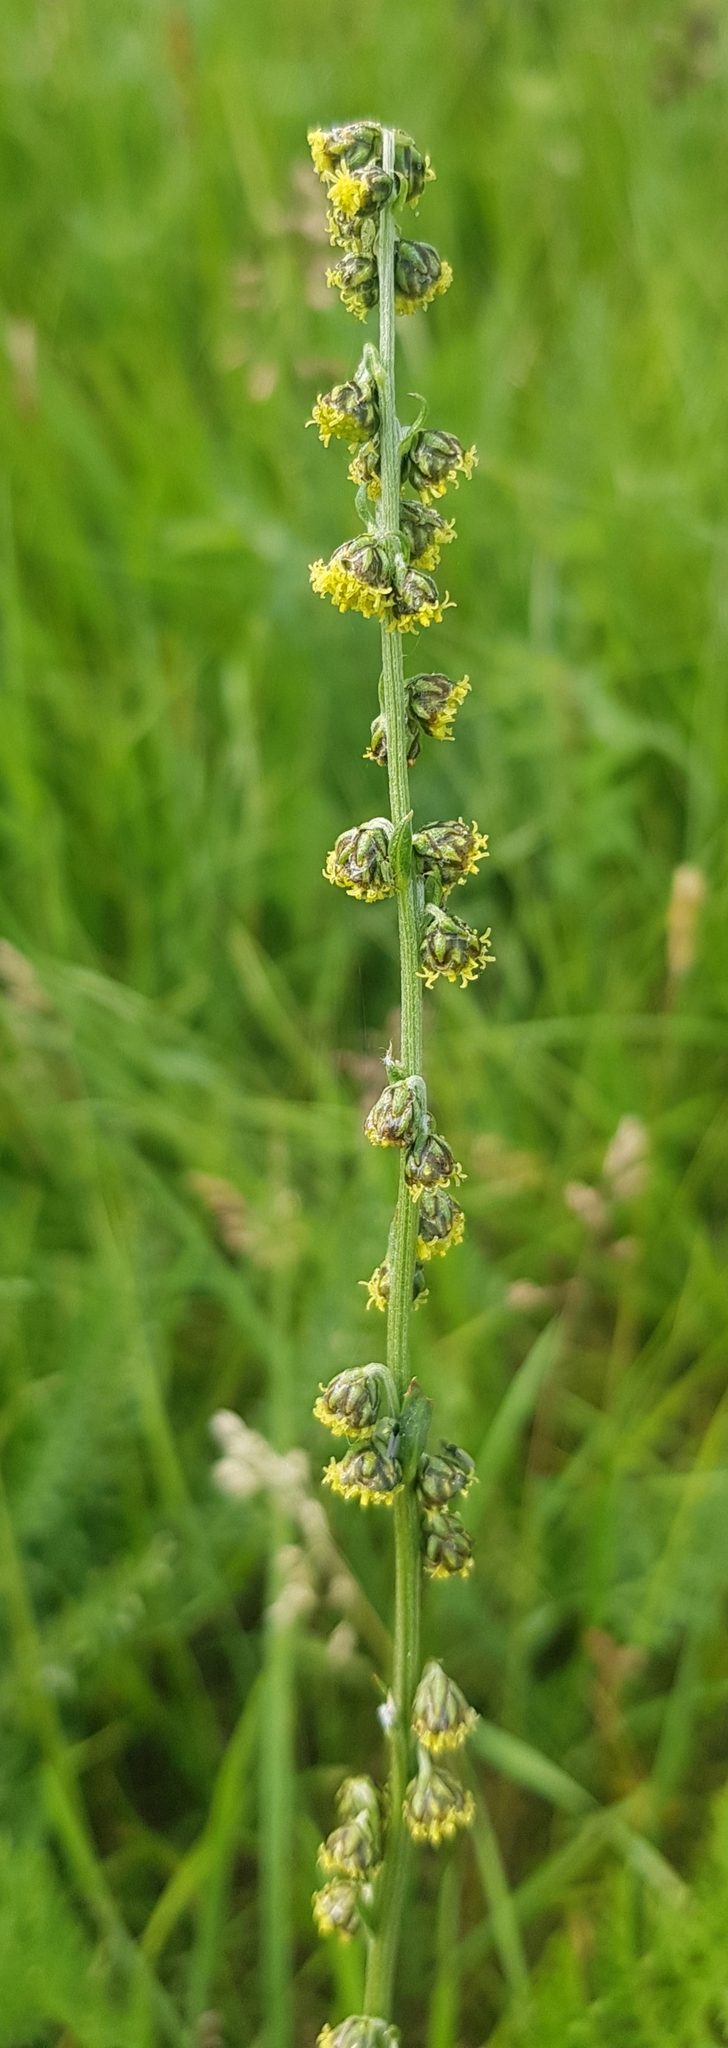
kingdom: Plantae
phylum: Tracheophyta
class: Magnoliopsida
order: Asterales
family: Asteraceae
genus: Artemisia
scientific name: Artemisia laciniata
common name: Siberian wormwood
